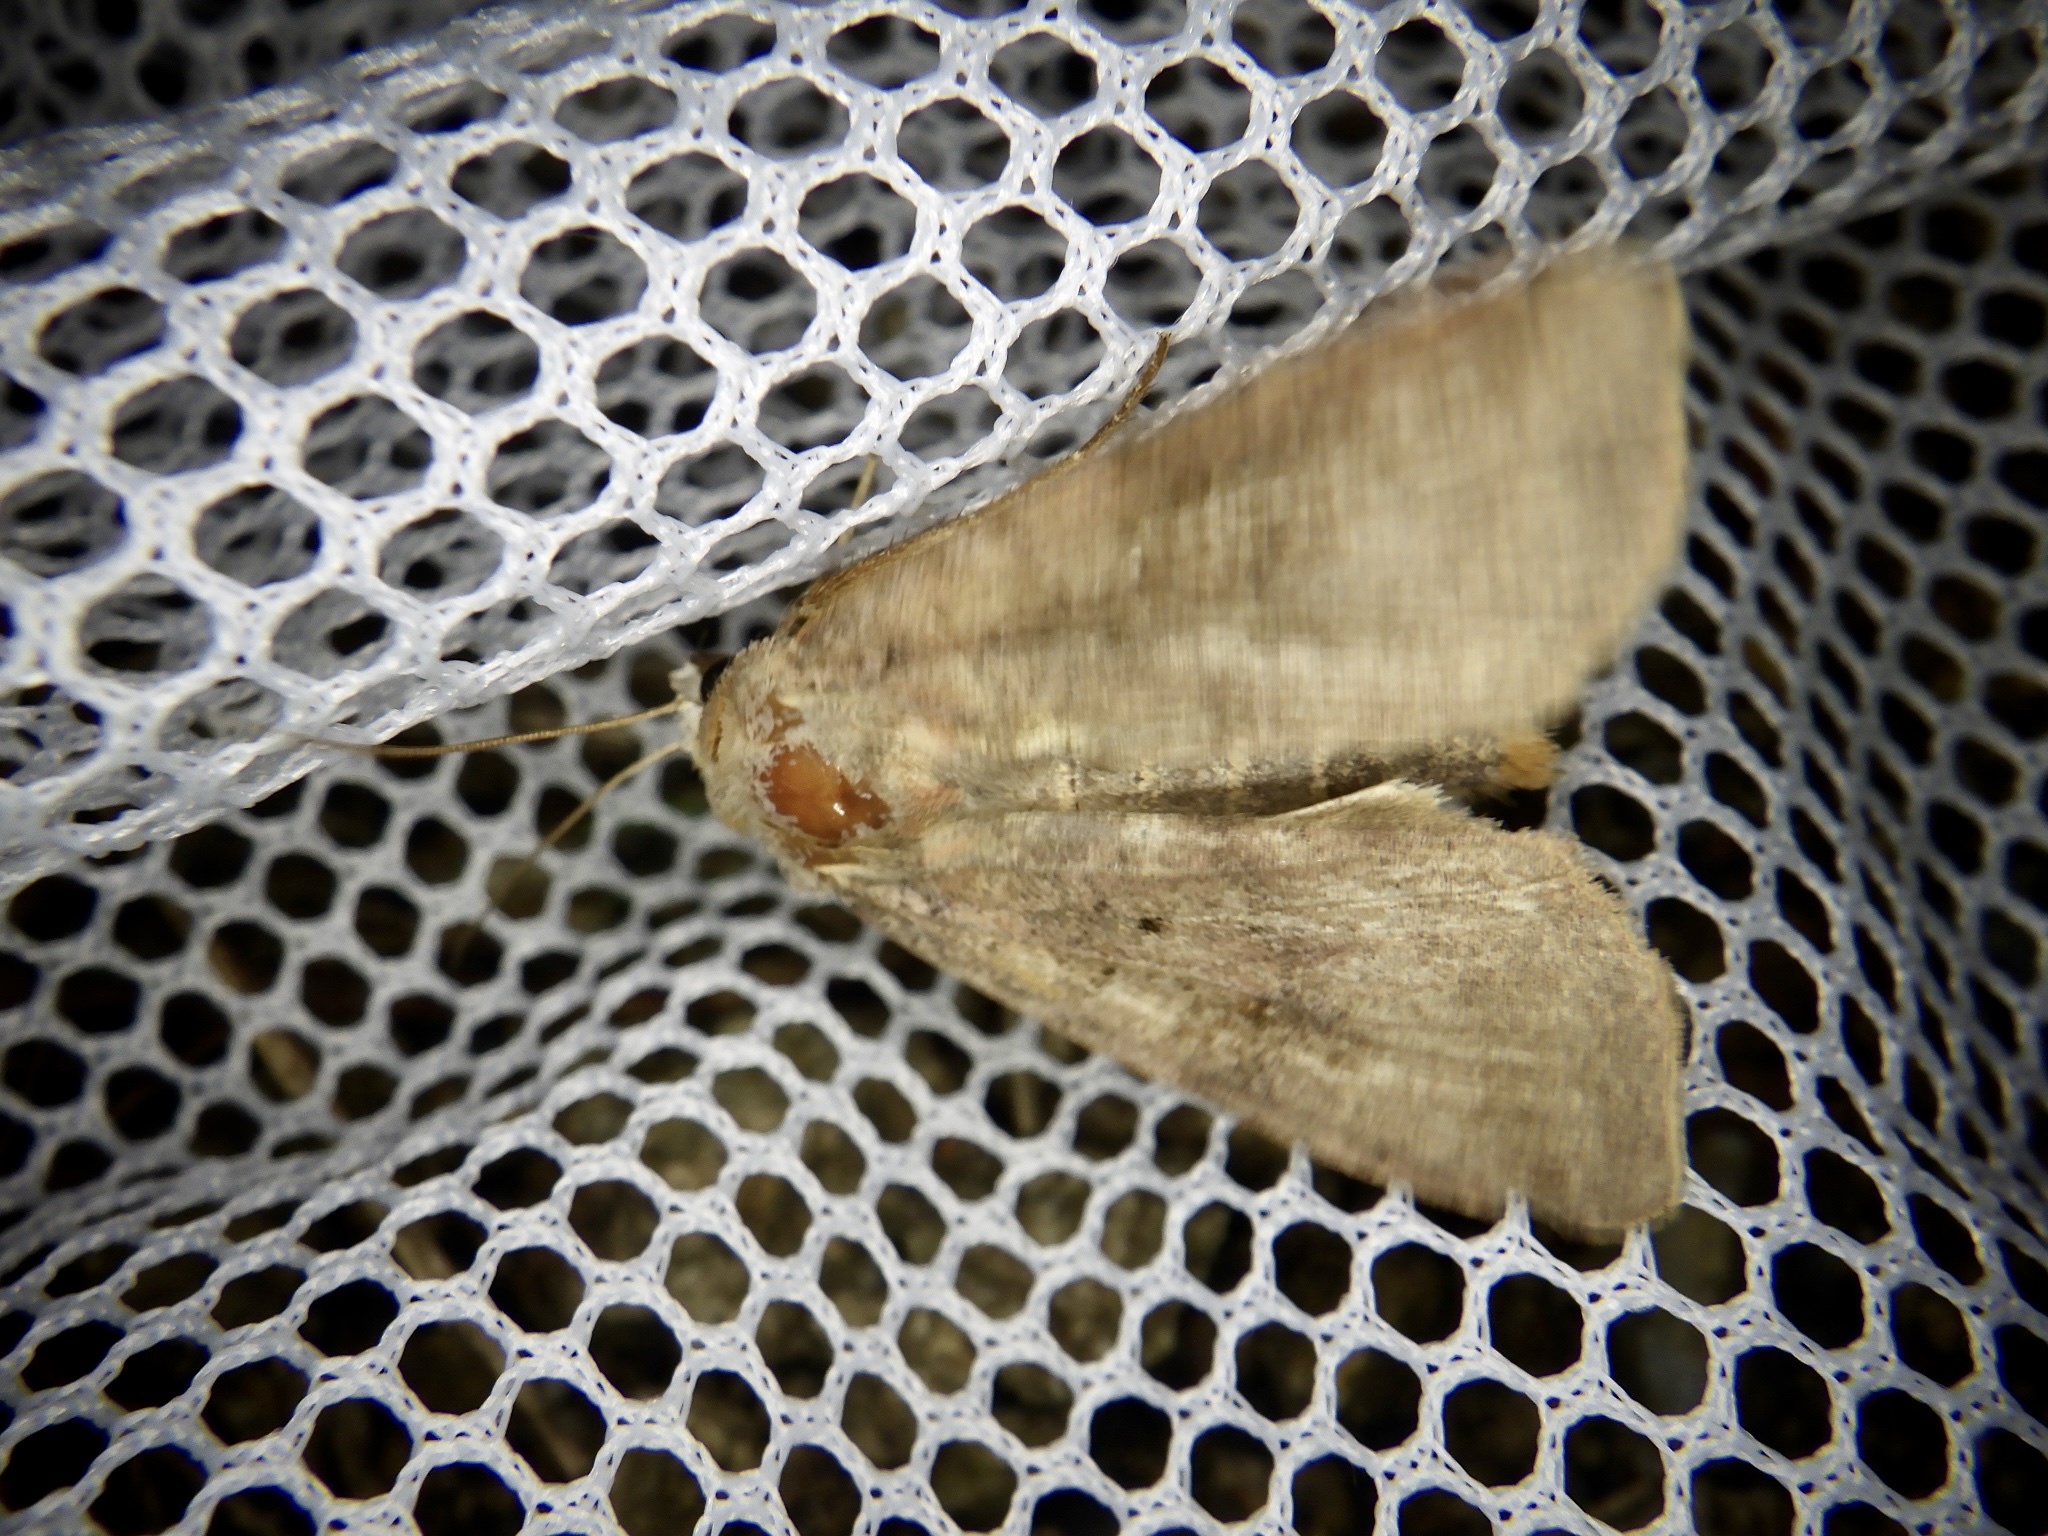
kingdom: Animalia
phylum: Arthropoda
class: Insecta
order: Lepidoptera
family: Noctuidae
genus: Diarsia
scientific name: Diarsia canescens
